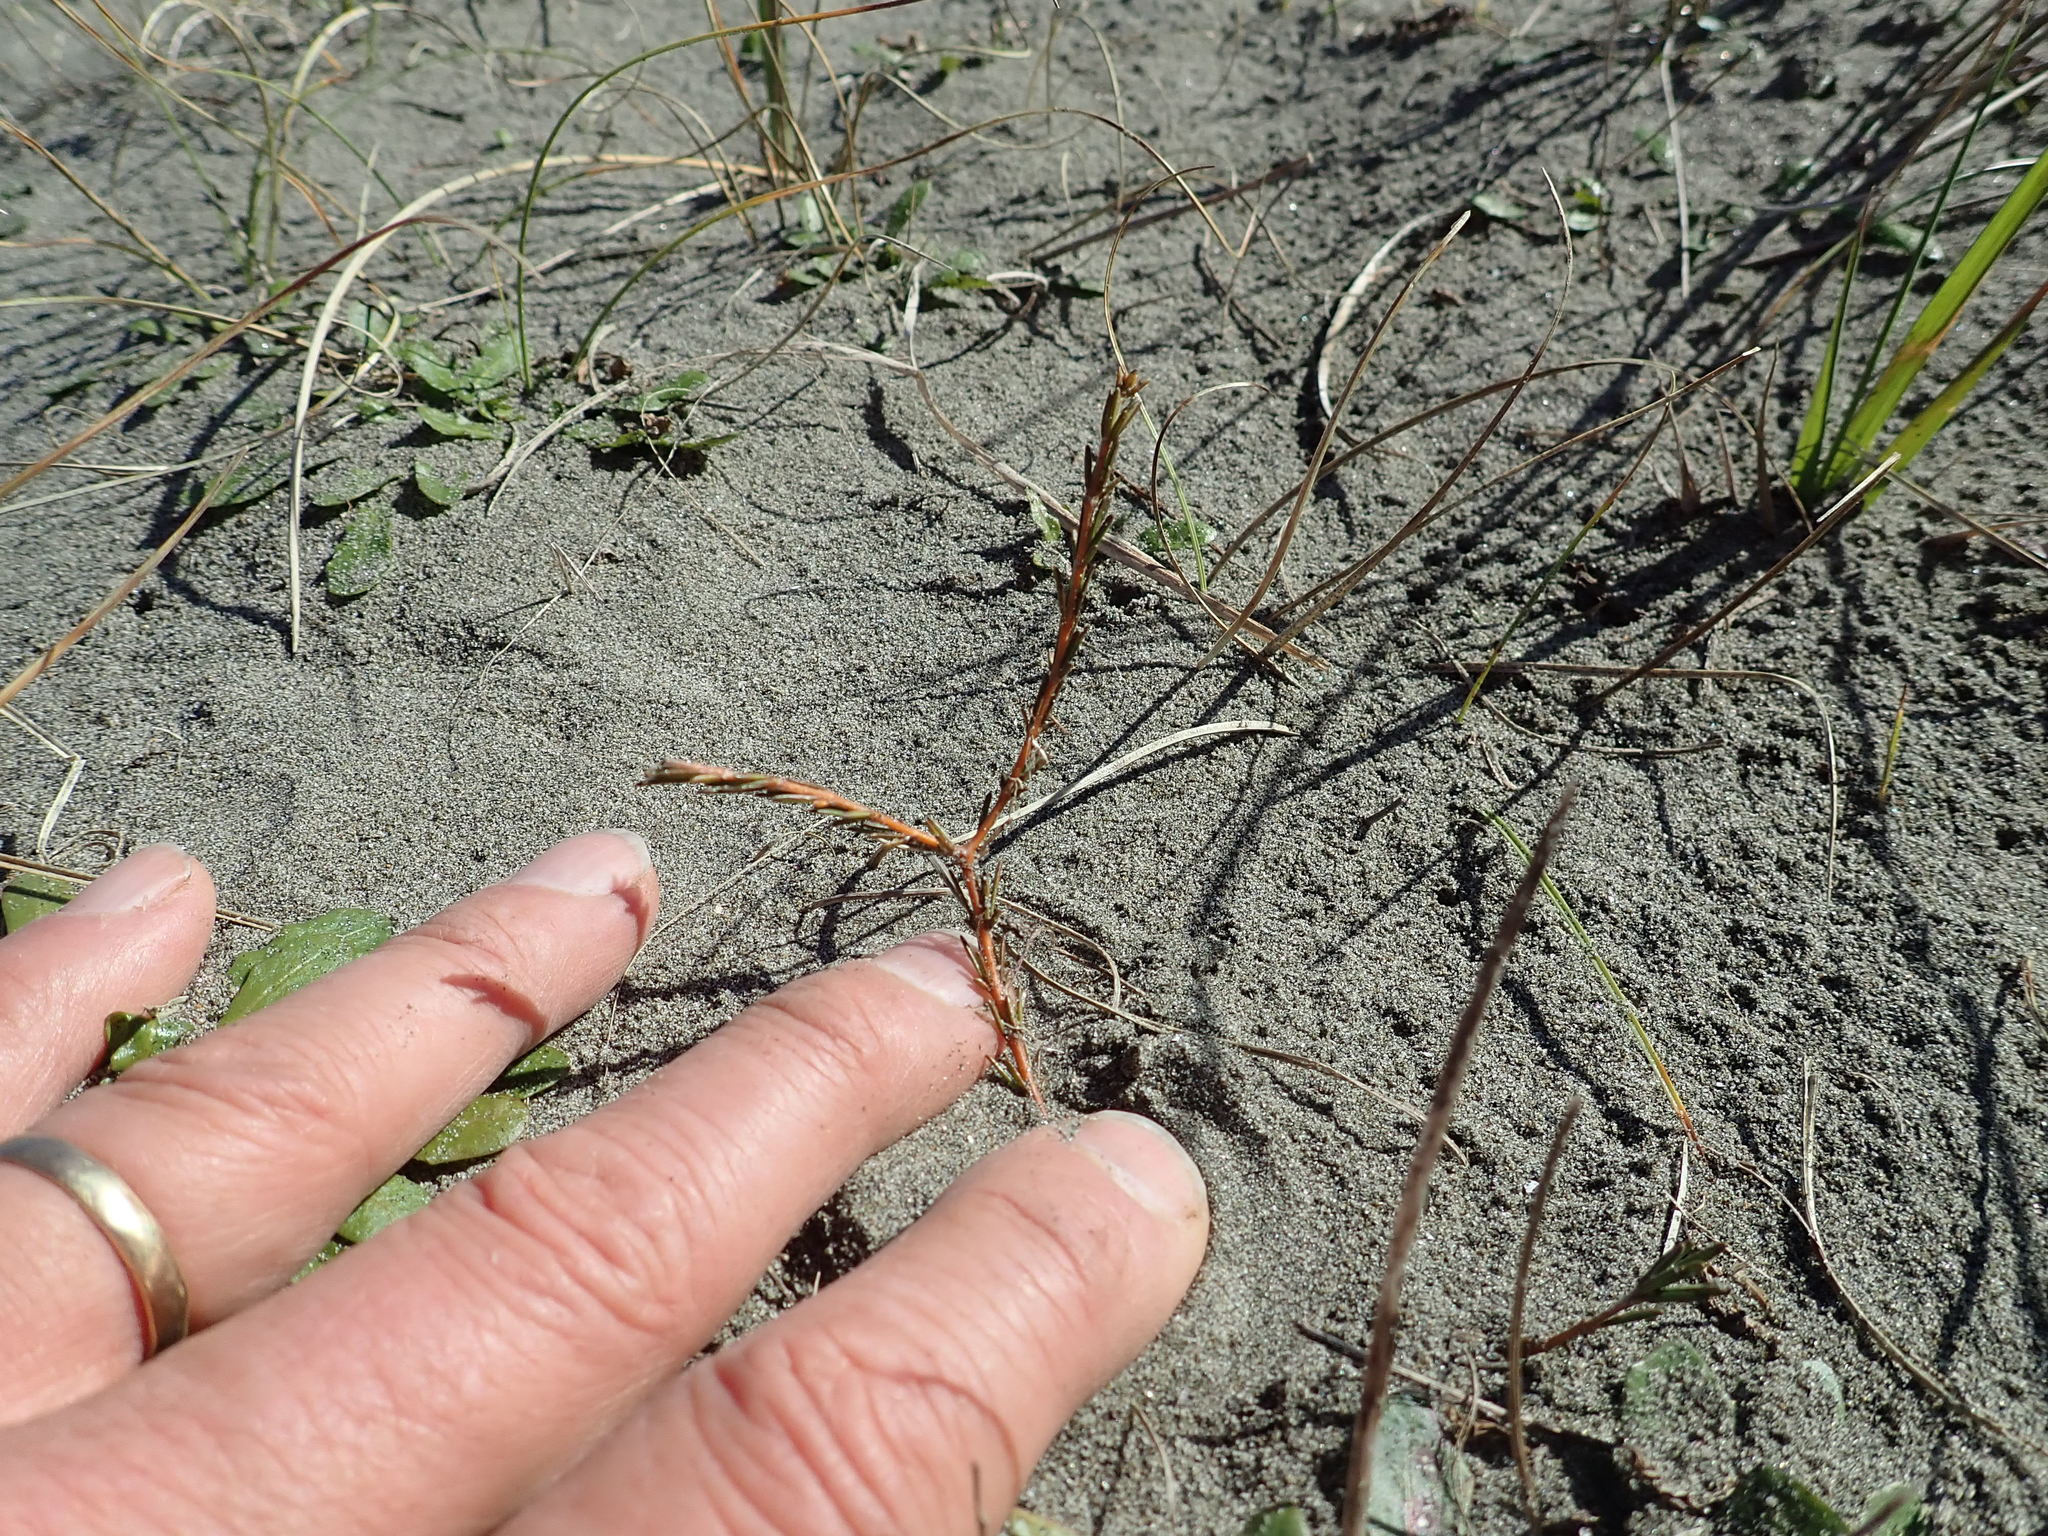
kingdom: Plantae
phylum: Tracheophyta
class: Magnoliopsida
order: Gentianales
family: Rubiaceae
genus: Coprosma
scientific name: Coprosma acerosa
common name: Sand coprosma
